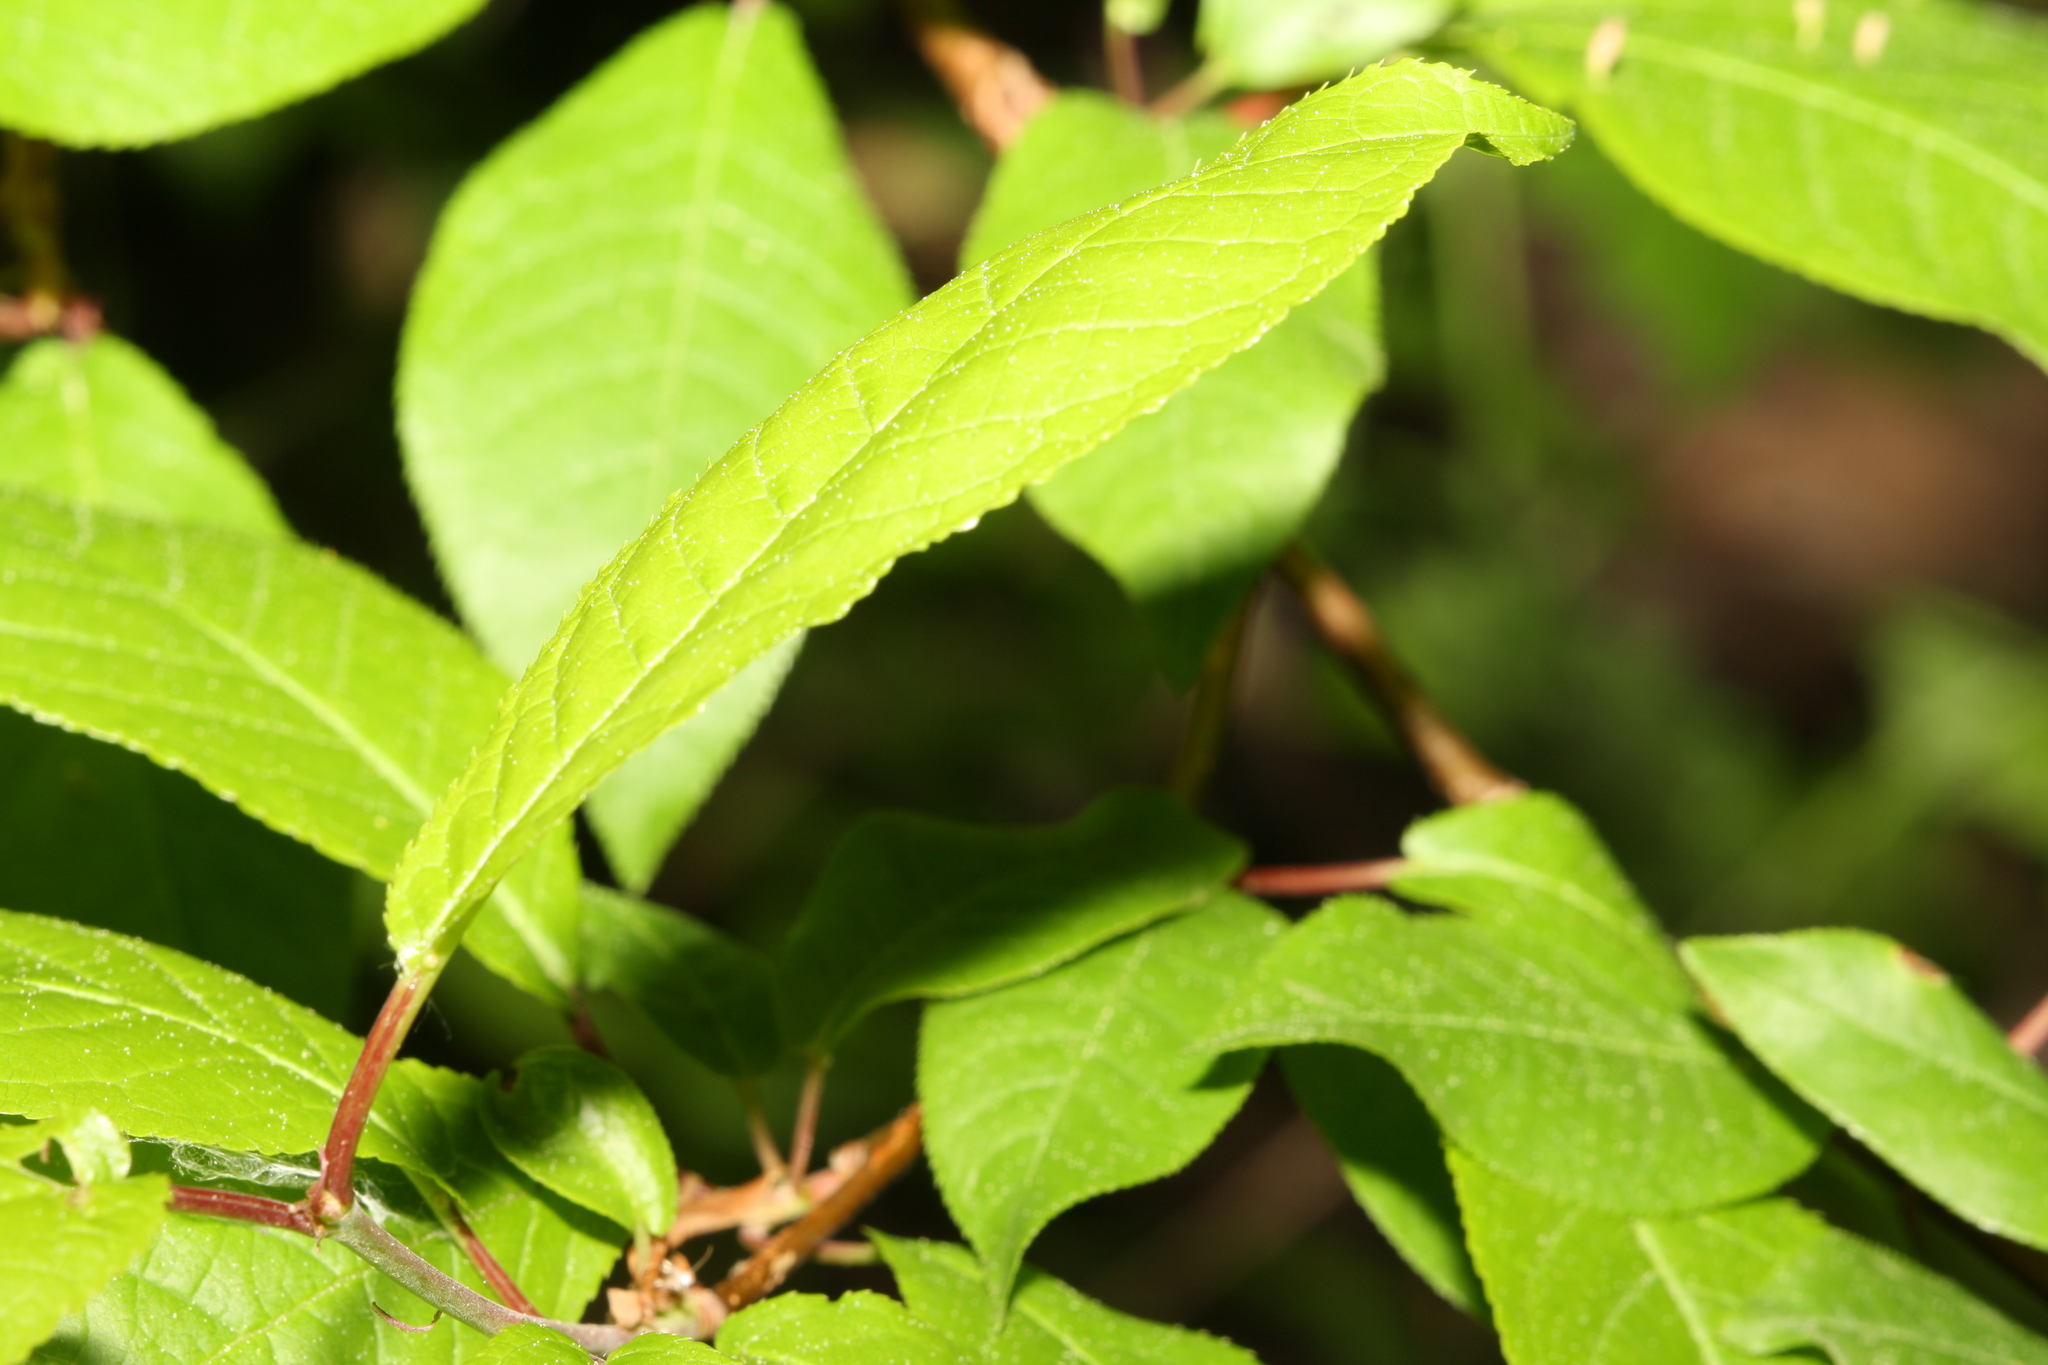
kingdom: Plantae
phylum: Tracheophyta
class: Magnoliopsida
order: Rosales
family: Rosaceae
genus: Prunus
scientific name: Prunus padus
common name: Bird cherry
